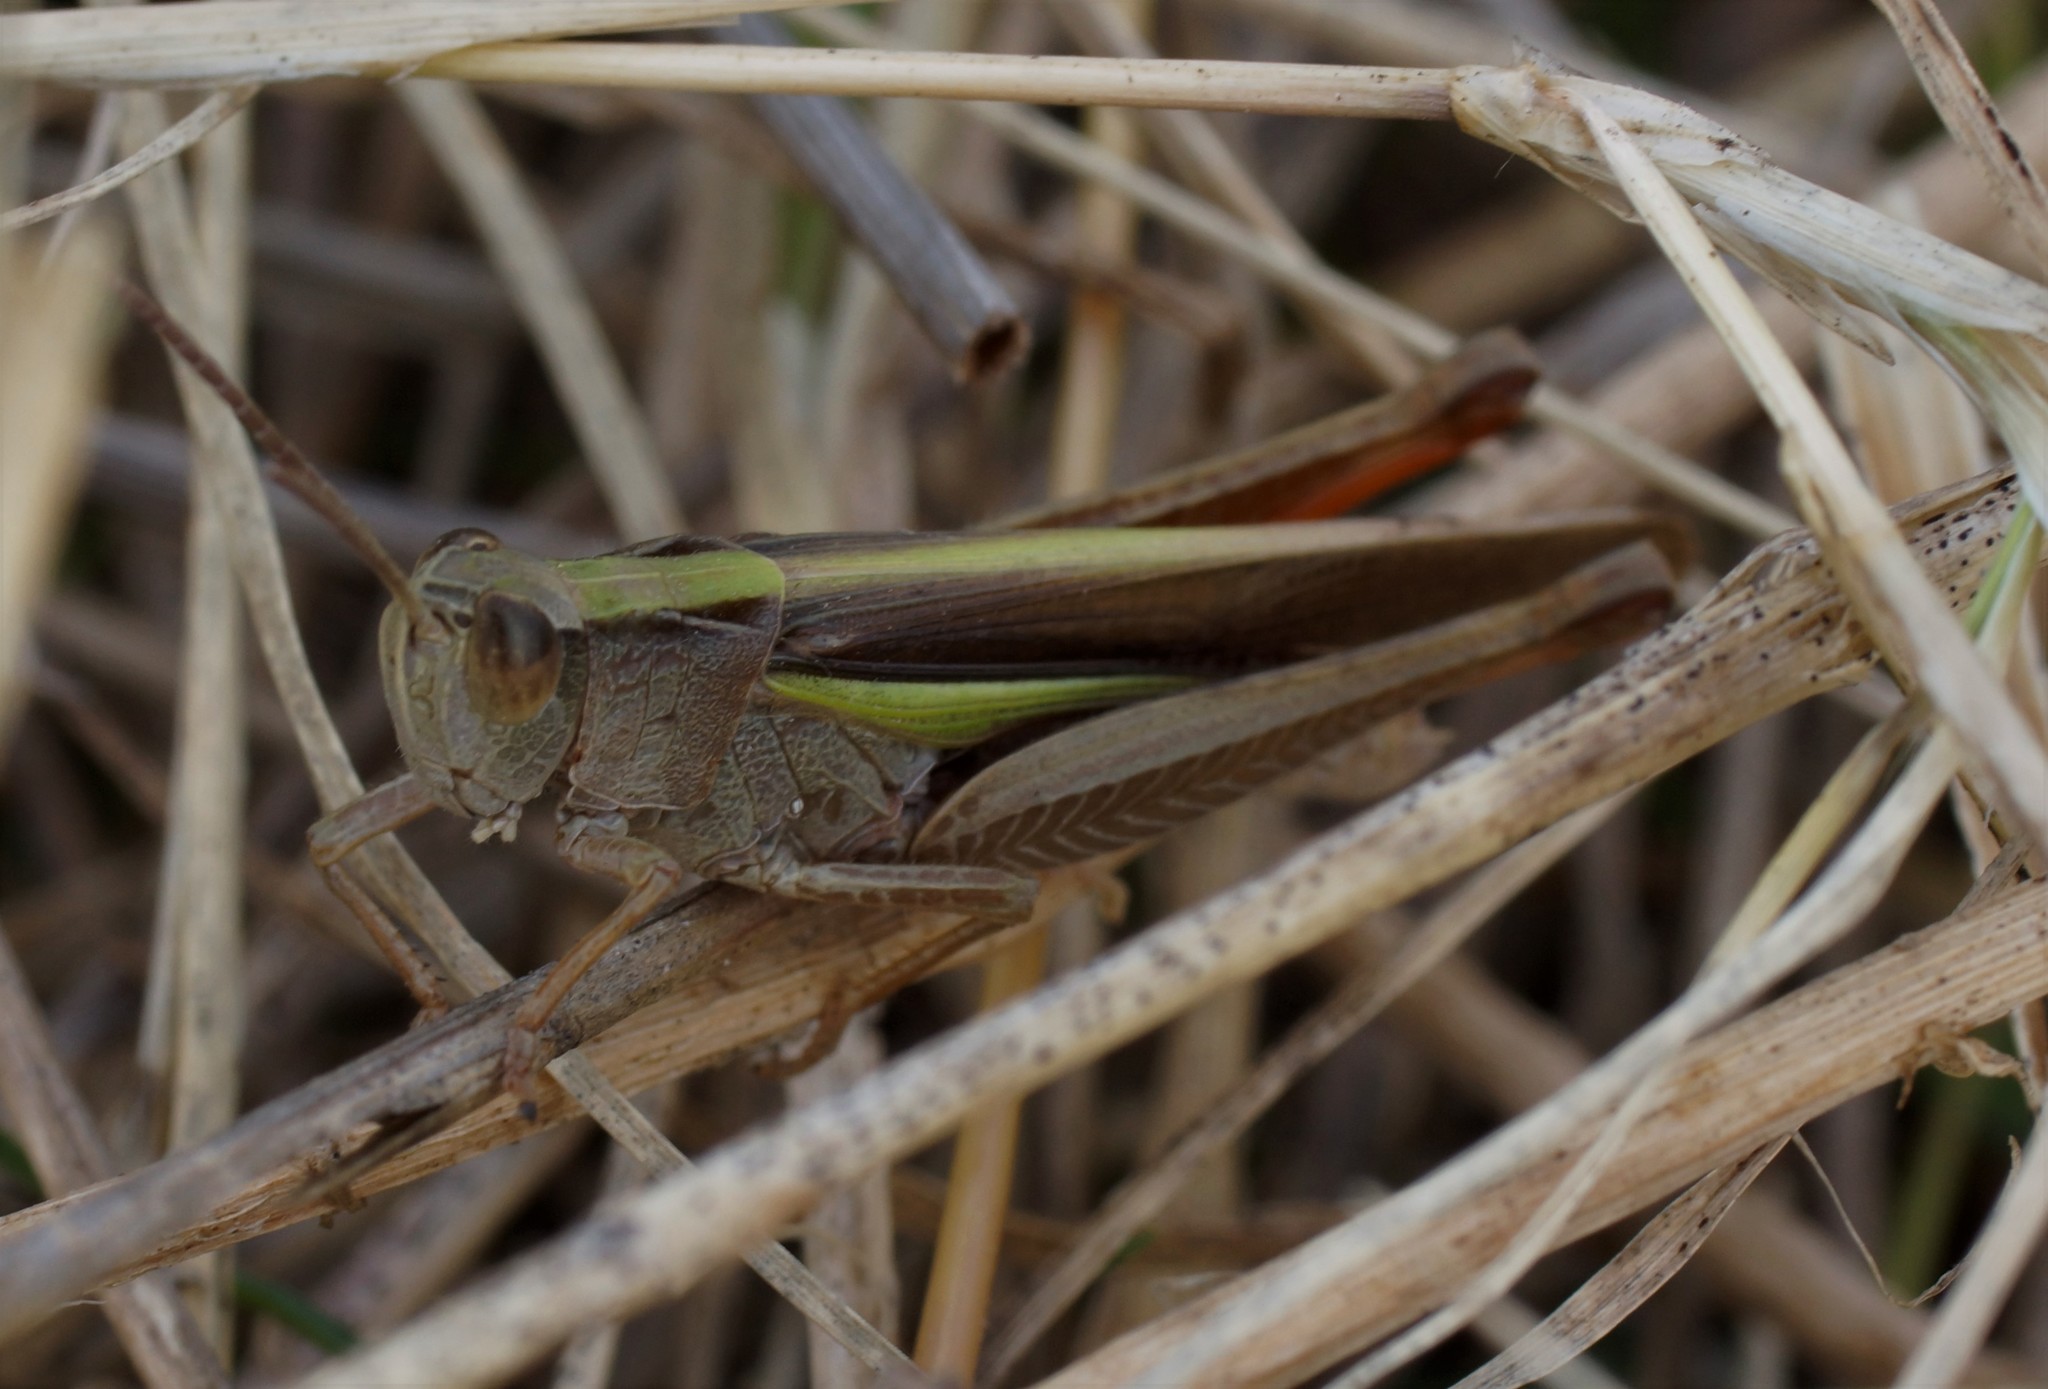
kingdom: Animalia
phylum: Arthropoda
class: Insecta
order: Orthoptera
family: Acrididae
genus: Schizobothrus
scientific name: Schizobothrus flavovittatus
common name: Disappearing grasshopper
